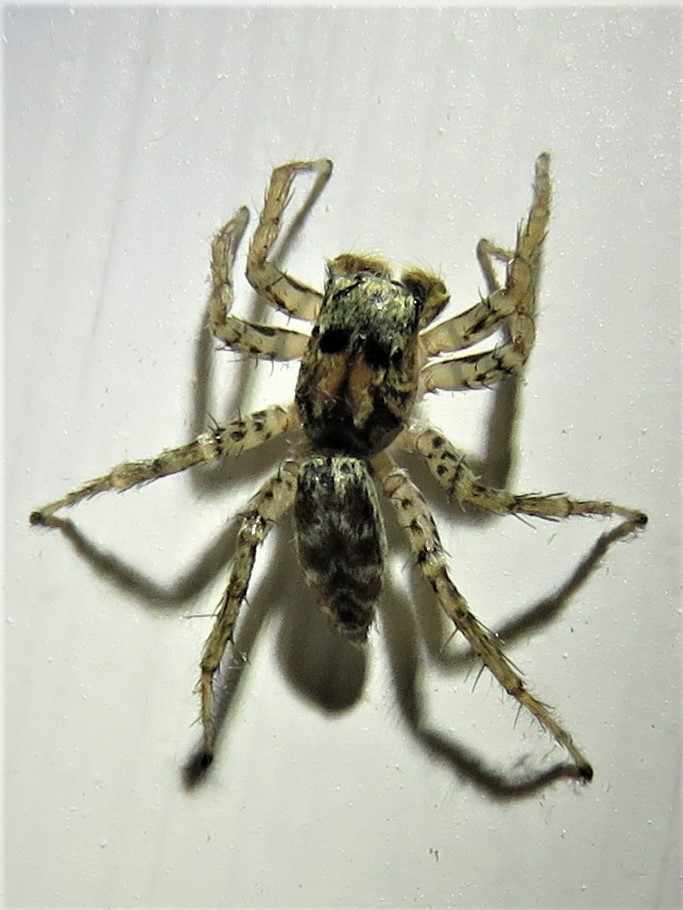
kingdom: Animalia
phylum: Arthropoda
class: Arachnida
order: Araneae
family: Salticidae
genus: Maevia
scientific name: Maevia inclemens
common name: Dimorphic jumper
